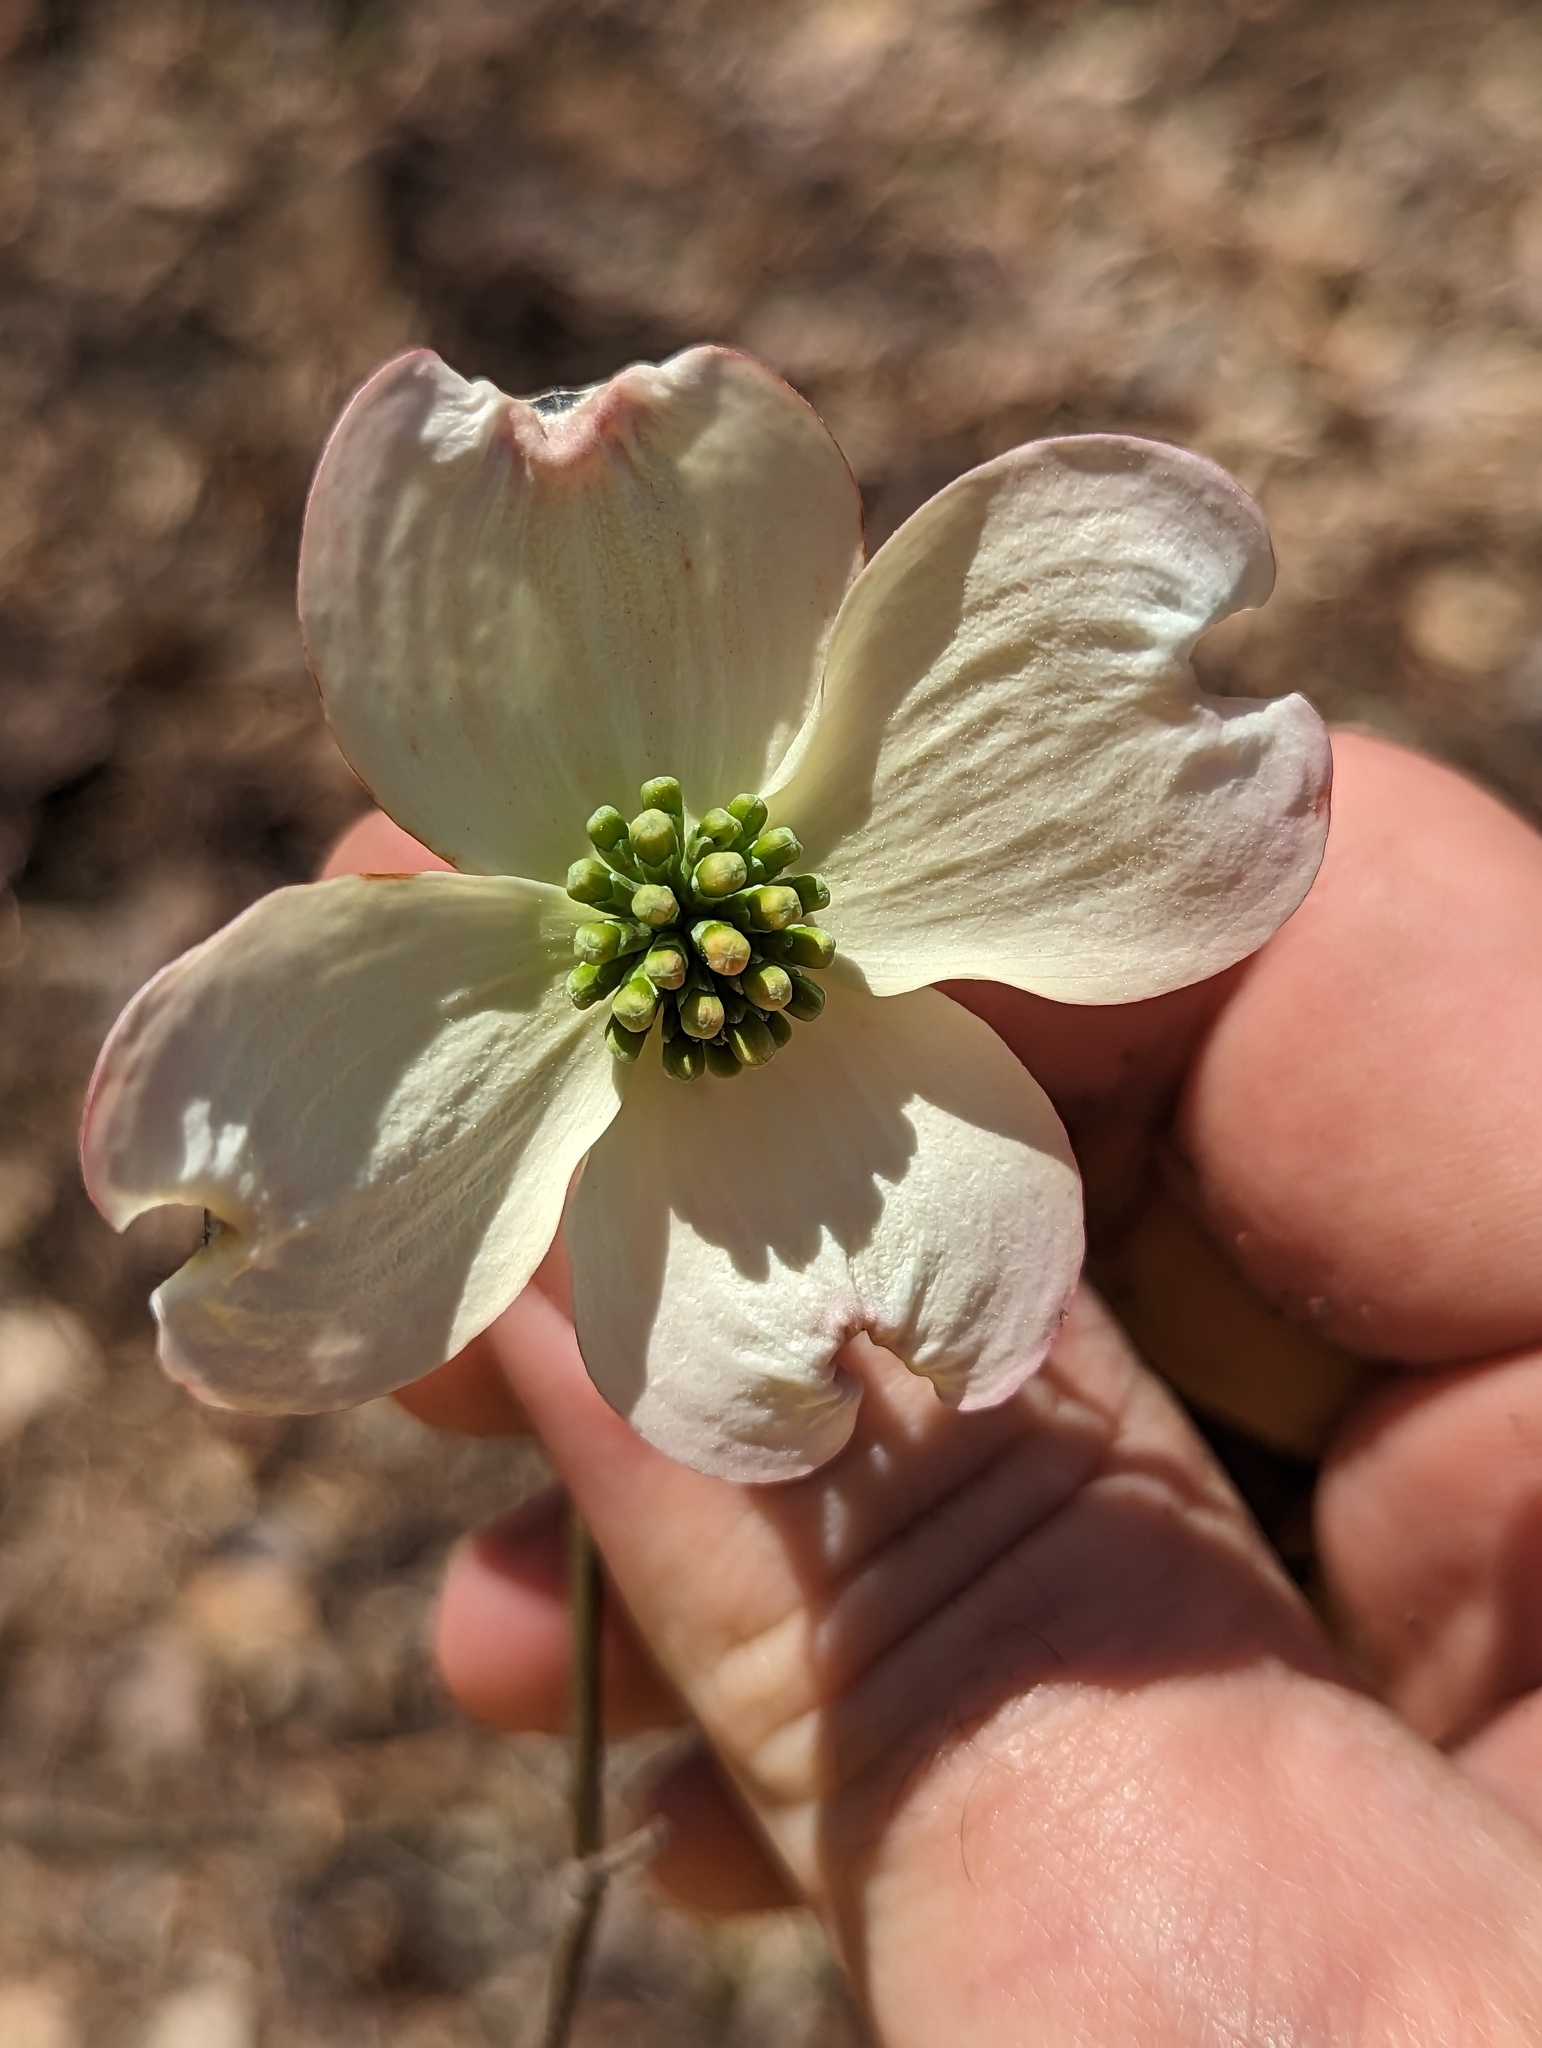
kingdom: Plantae
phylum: Tracheophyta
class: Magnoliopsida
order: Cornales
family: Cornaceae
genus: Cornus
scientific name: Cornus florida
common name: Flowering dogwood
